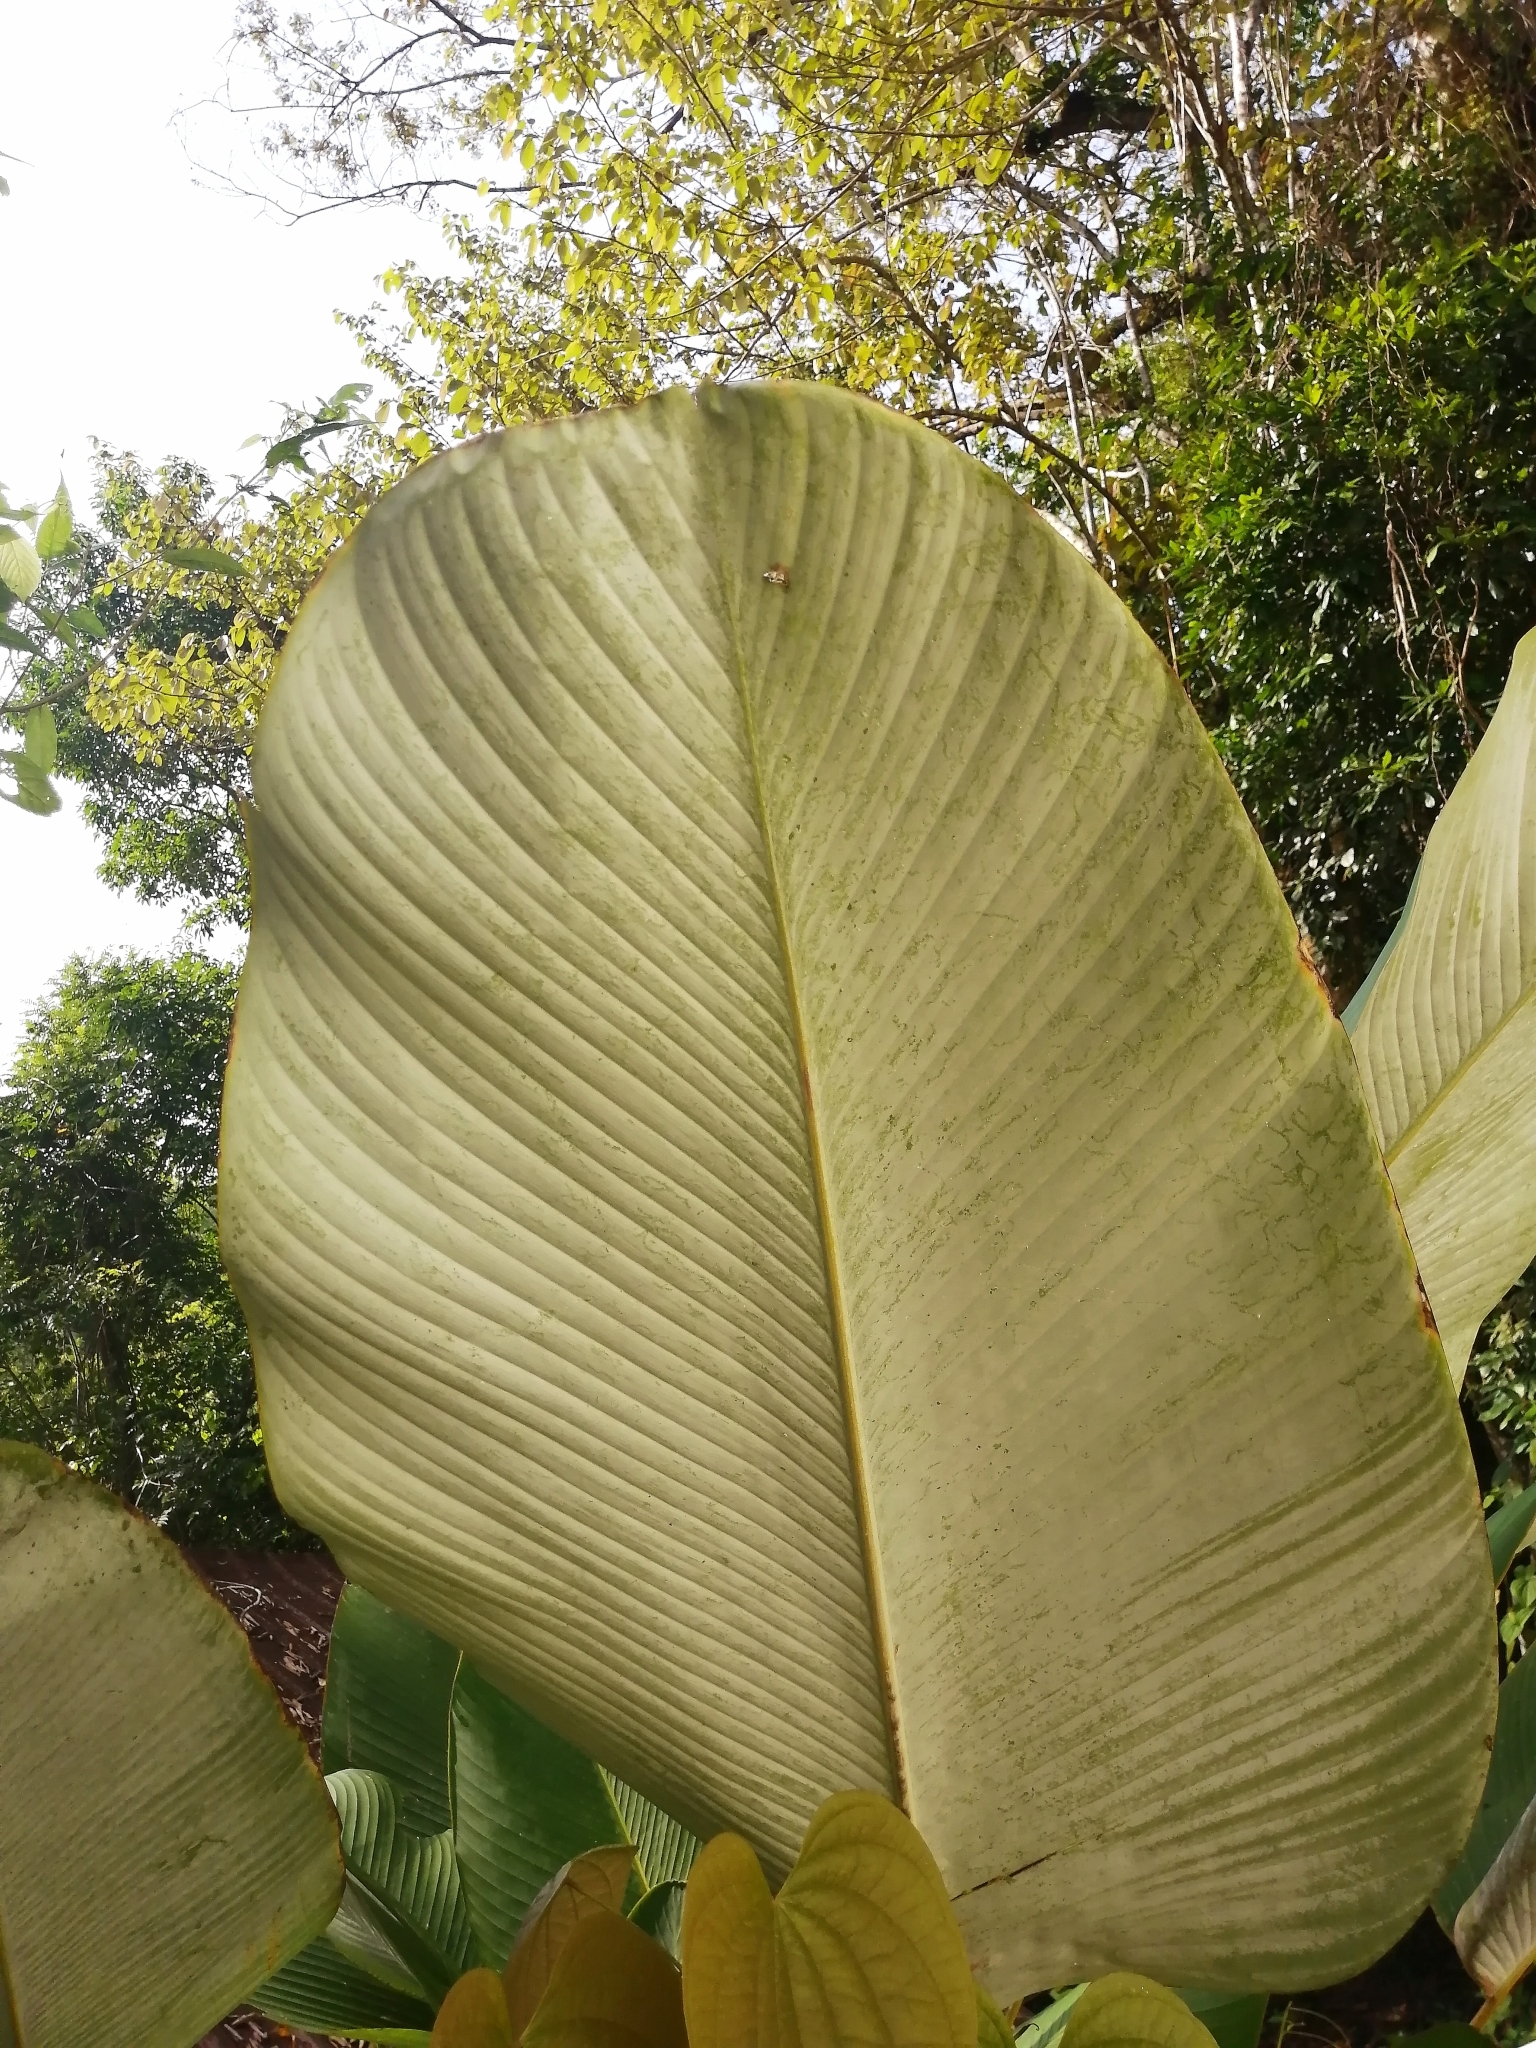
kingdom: Plantae
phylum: Tracheophyta
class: Liliopsida
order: Zingiberales
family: Marantaceae
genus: Calathea
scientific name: Calathea lutea
